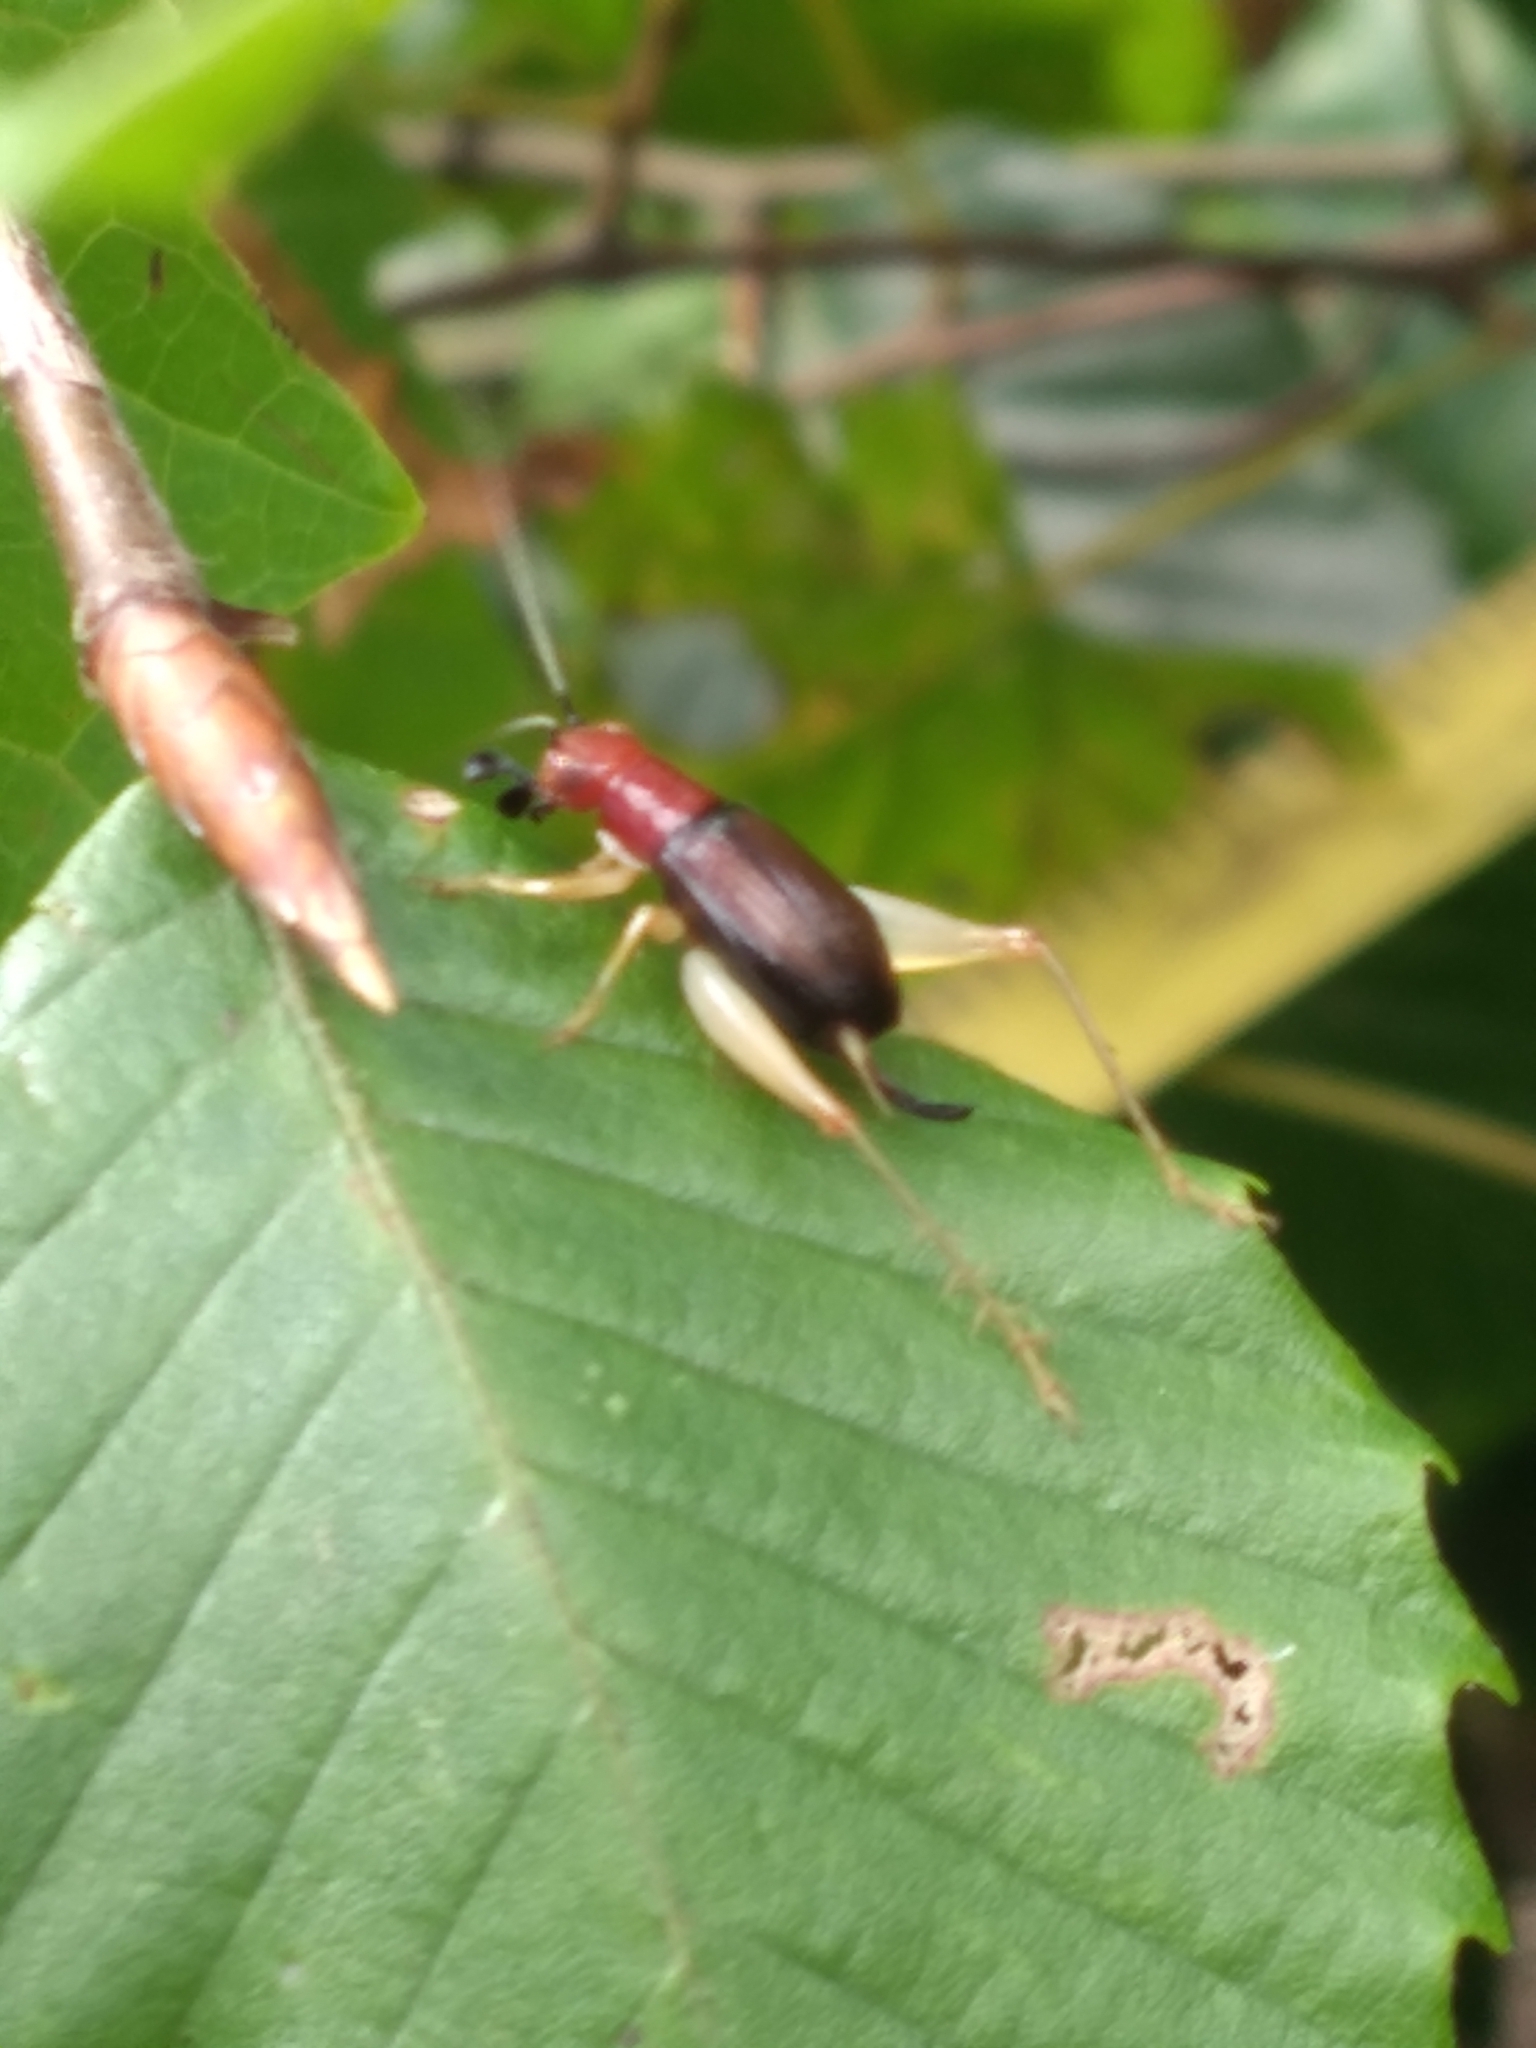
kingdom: Animalia
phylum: Arthropoda
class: Insecta
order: Orthoptera
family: Trigonidiidae
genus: Phyllopalpus
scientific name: Phyllopalpus pulchellus
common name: Handsome trig
